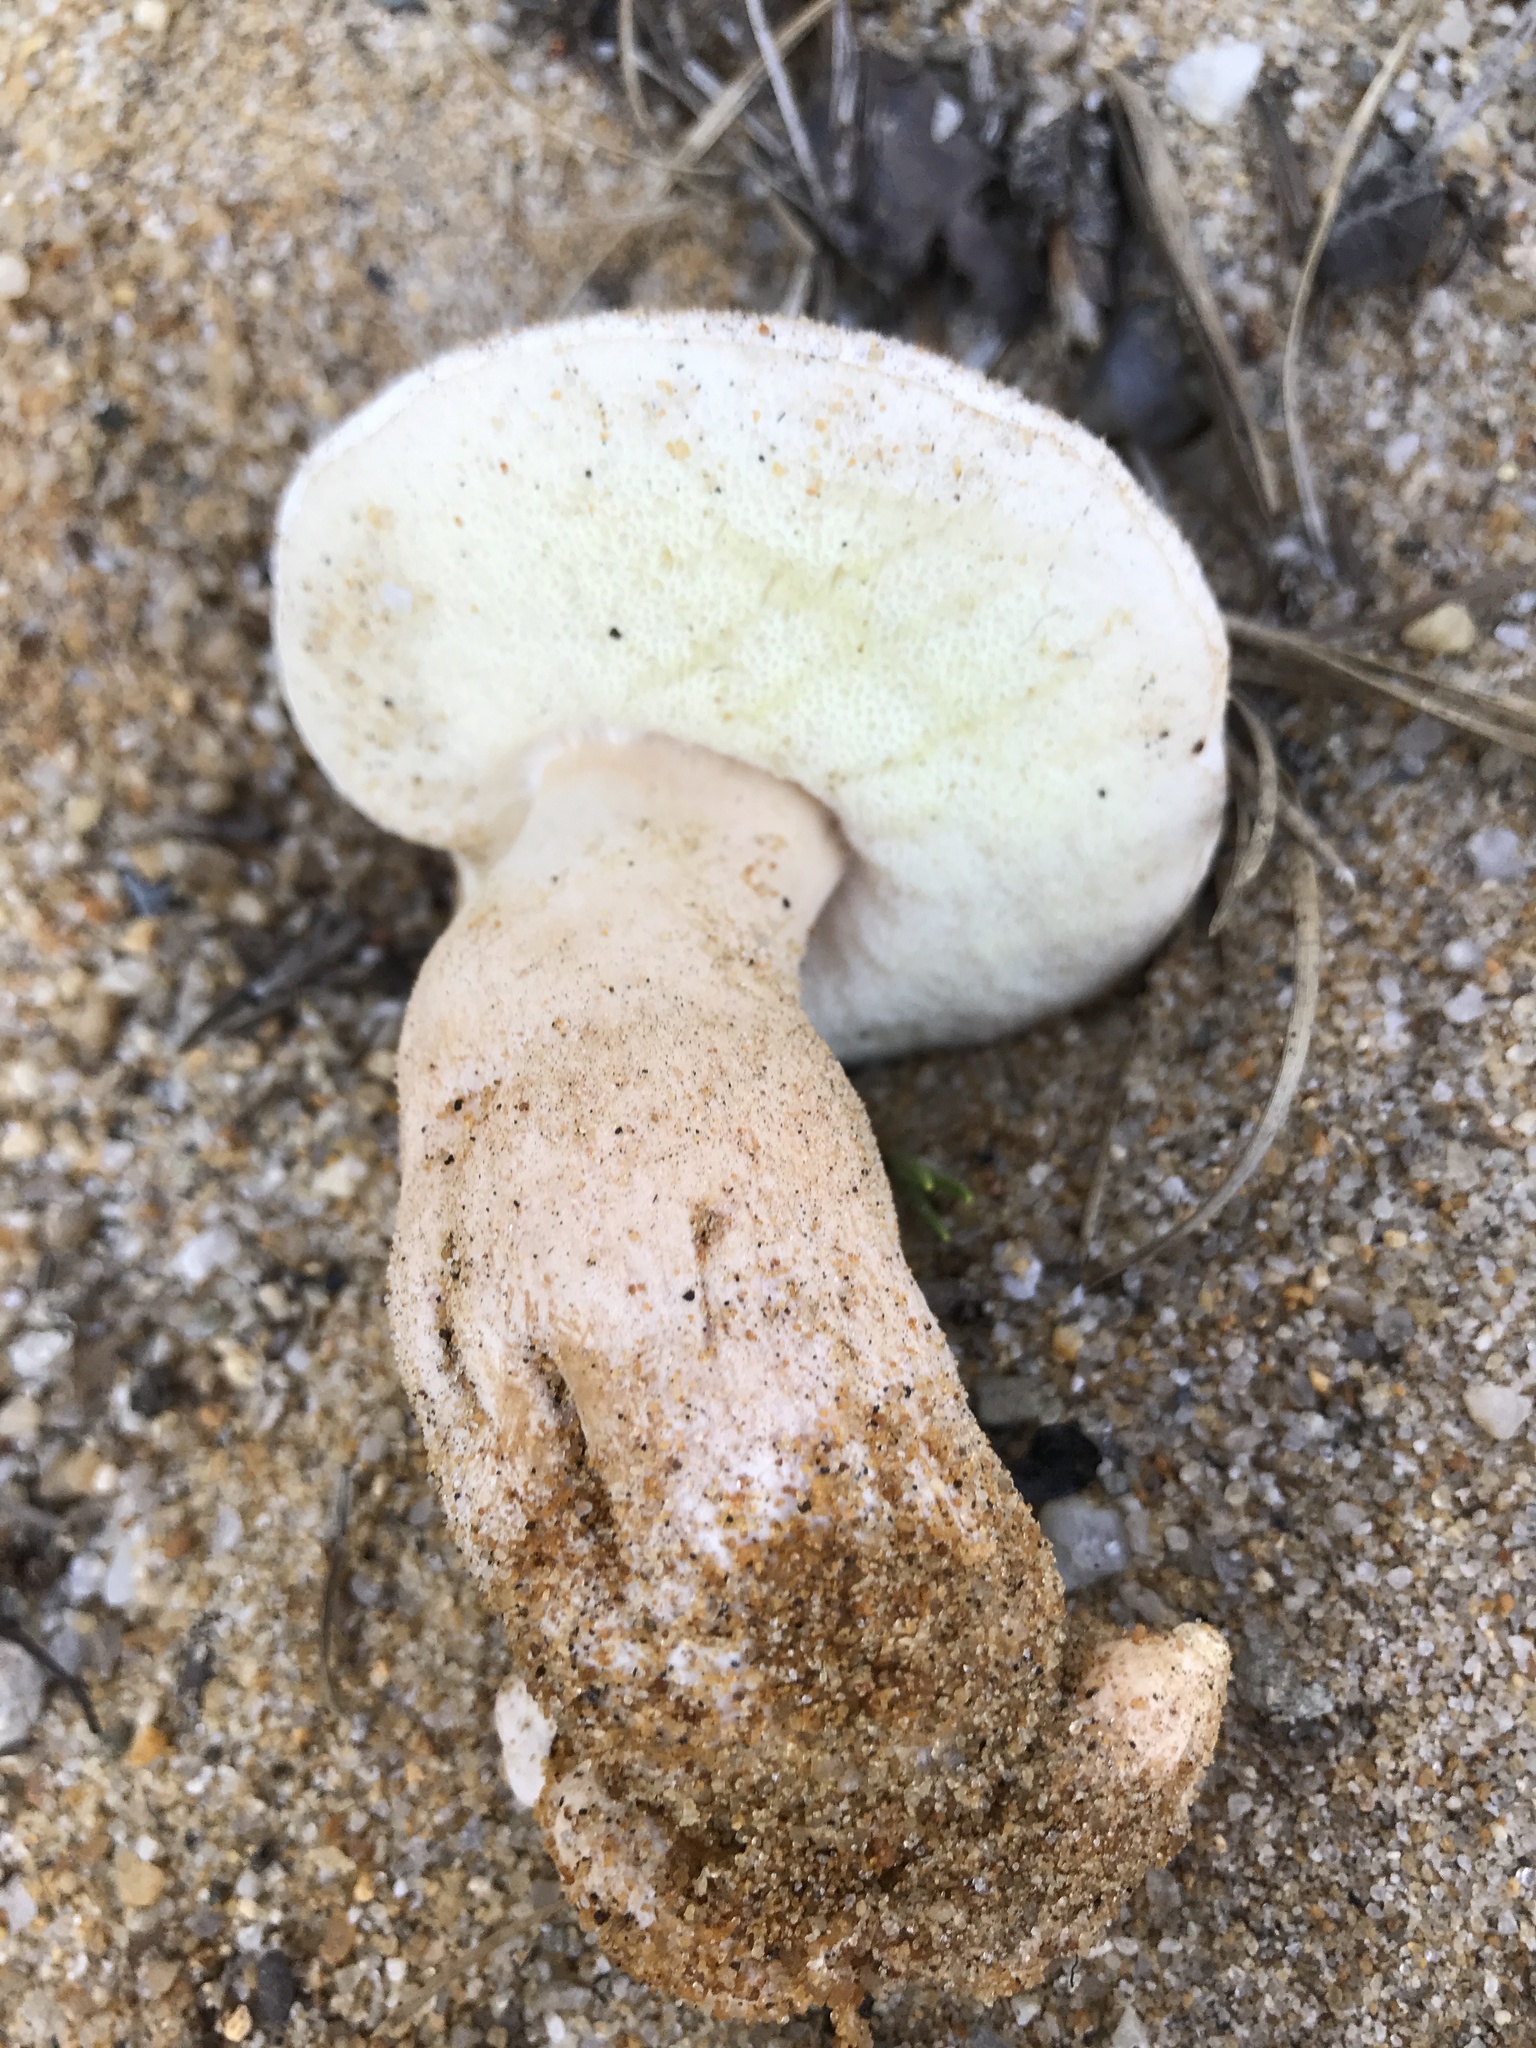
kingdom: Fungi
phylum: Basidiomycota
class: Agaricomycetes
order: Boletales
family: Gyroporaceae
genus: Gyroporus
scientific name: Gyroporus subalbellus
